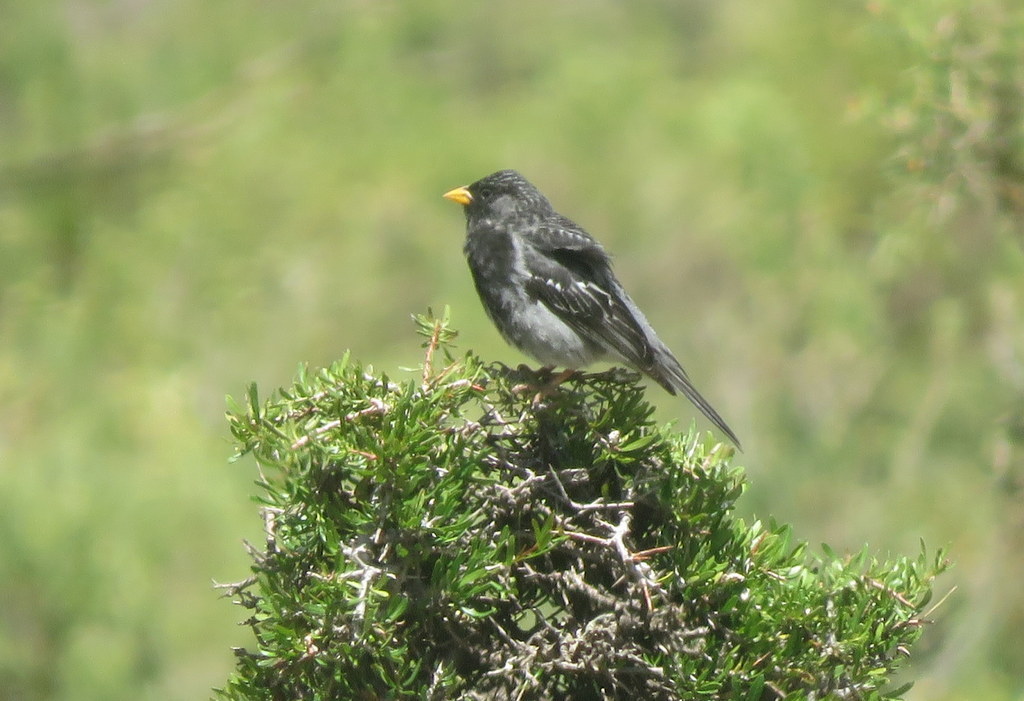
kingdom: Animalia
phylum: Chordata
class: Aves
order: Passeriformes
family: Thraupidae
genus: Rhopospina
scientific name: Rhopospina fruticeti
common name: Mourning sierra finch
